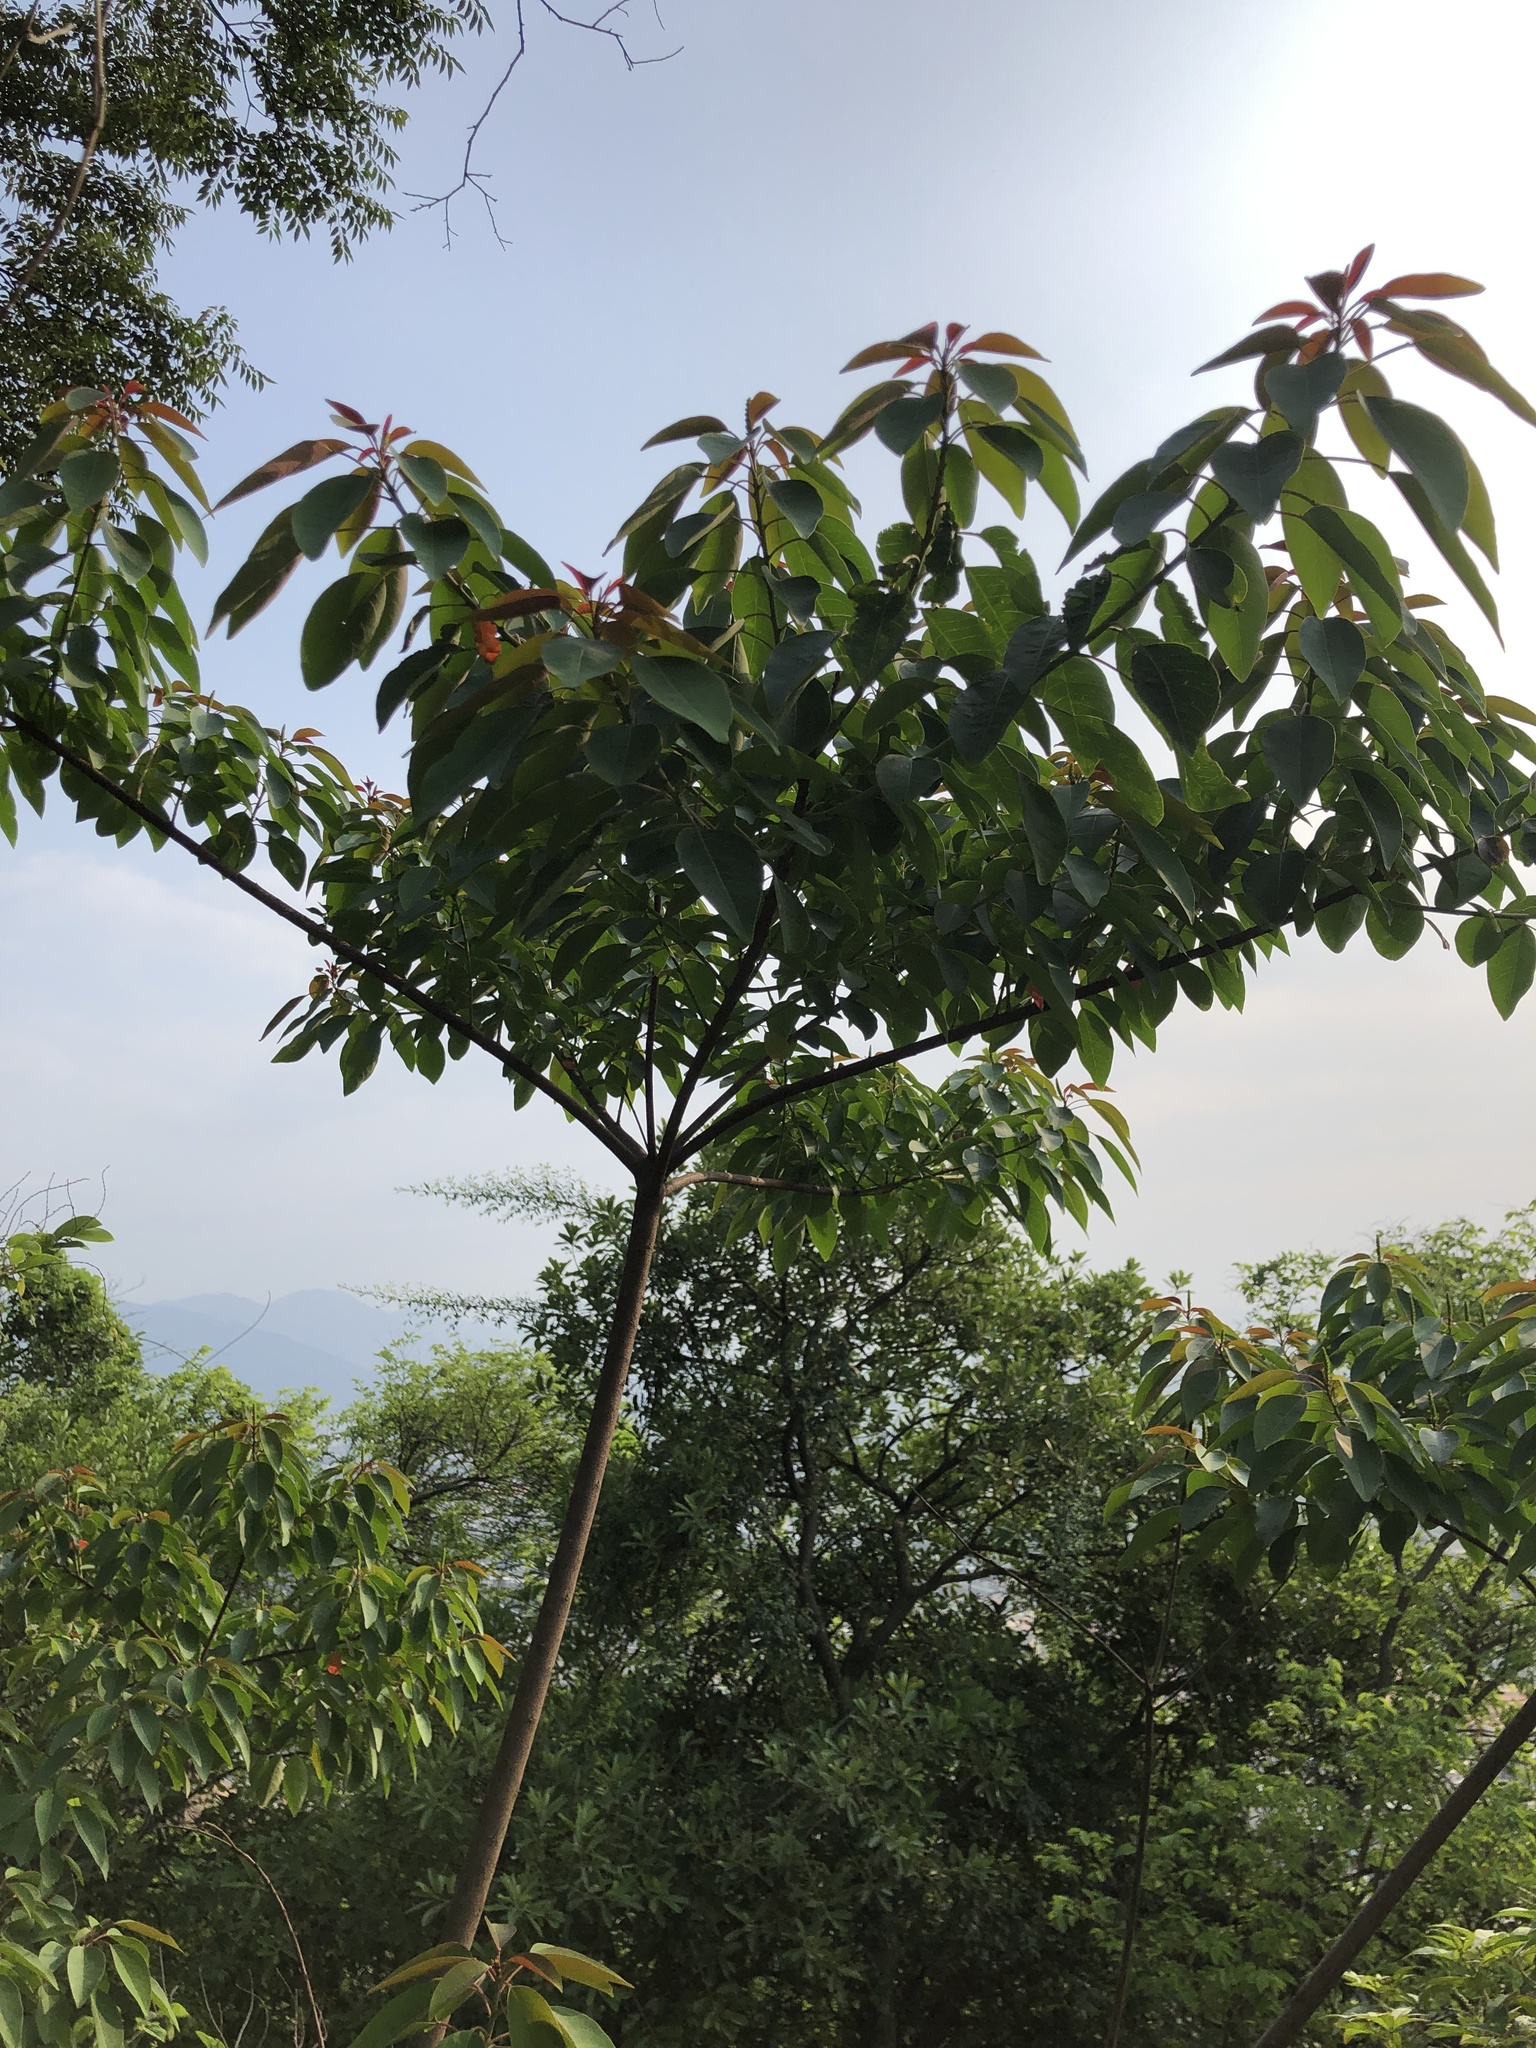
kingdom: Plantae
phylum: Tracheophyta
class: Magnoliopsida
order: Malpighiales
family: Euphorbiaceae
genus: Triadica
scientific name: Triadica cochinchinensis
